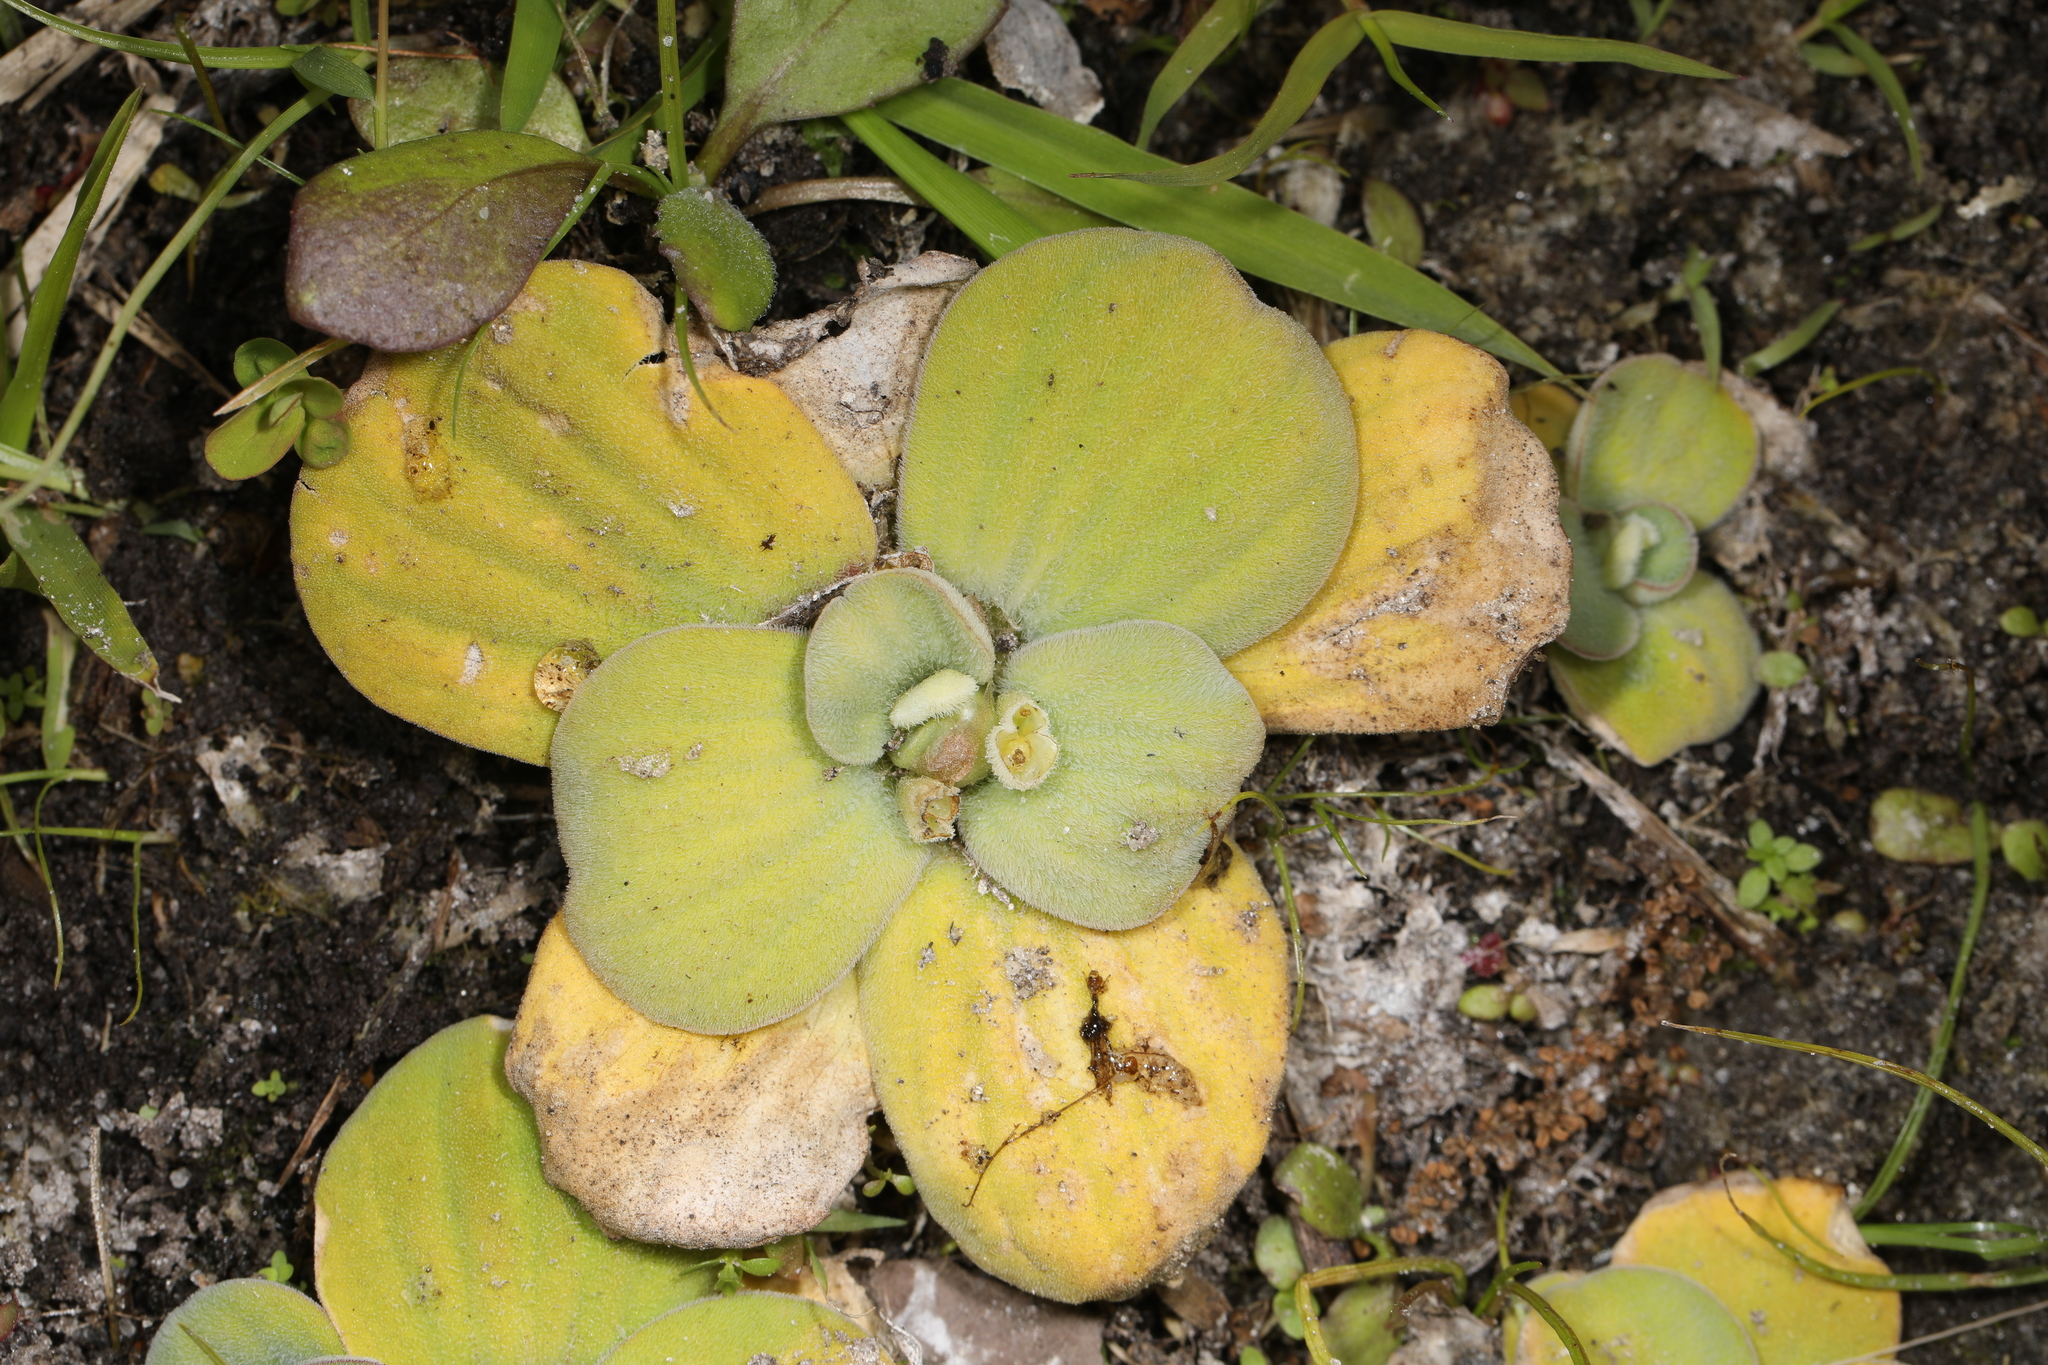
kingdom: Plantae
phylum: Tracheophyta
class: Liliopsida
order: Alismatales
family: Araceae
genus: Pistia
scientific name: Pistia stratiotes
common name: Water lettuce
